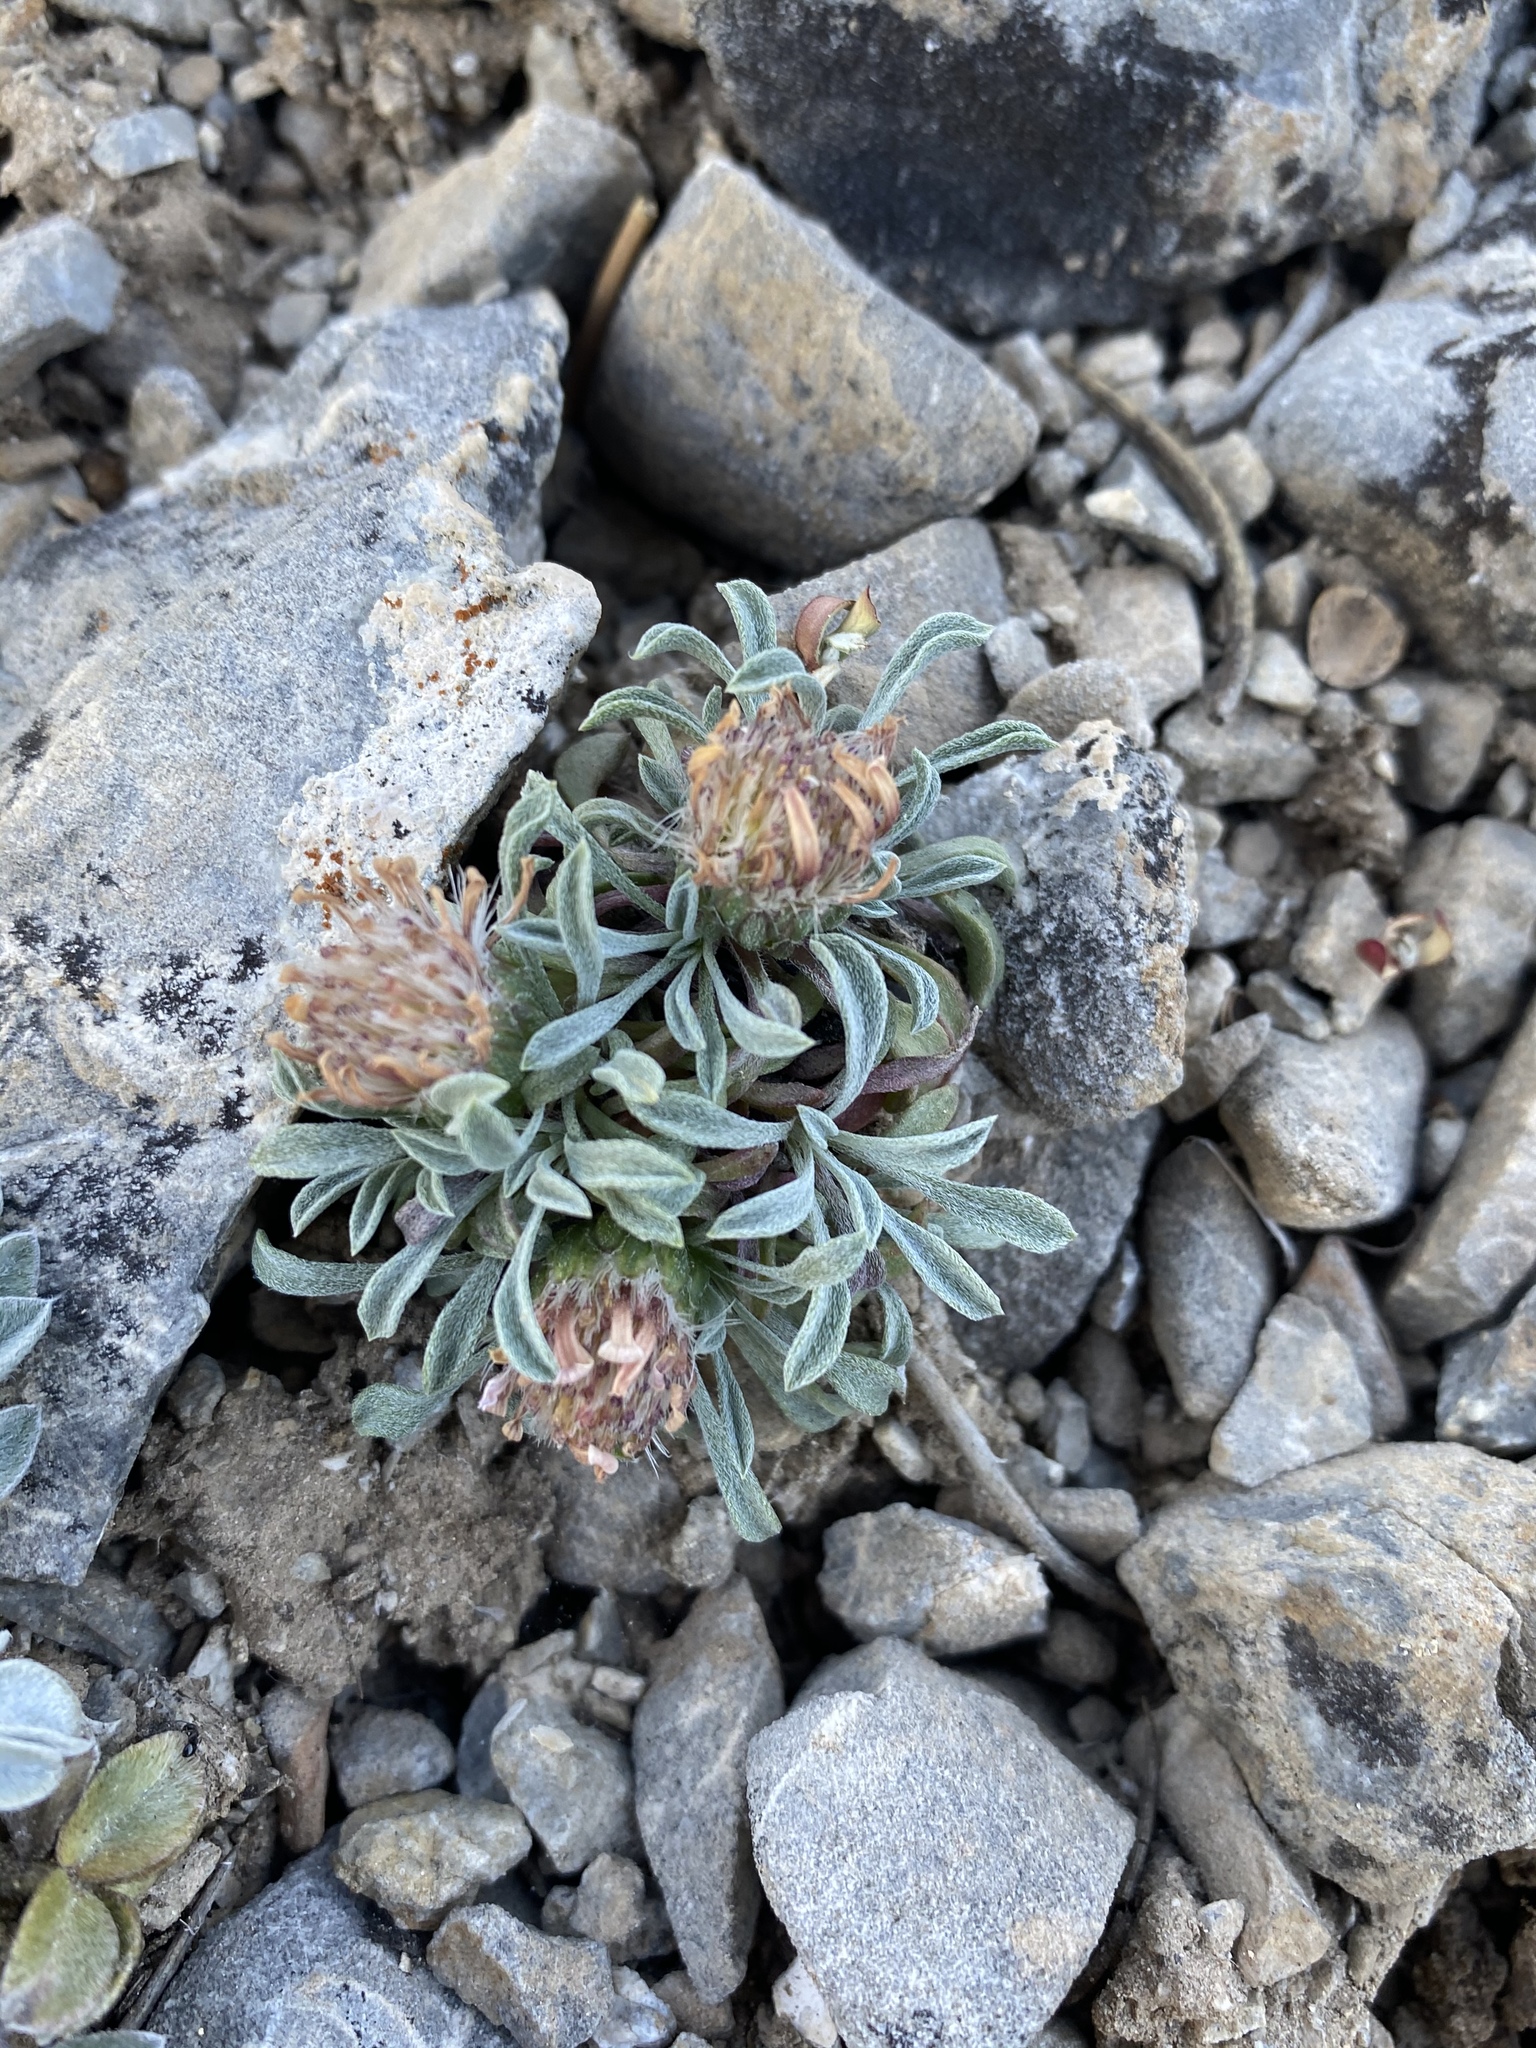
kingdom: Plantae
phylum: Tracheophyta
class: Magnoliopsida
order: Asterales
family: Asteraceae
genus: Townsendia
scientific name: Townsendia jonesii
